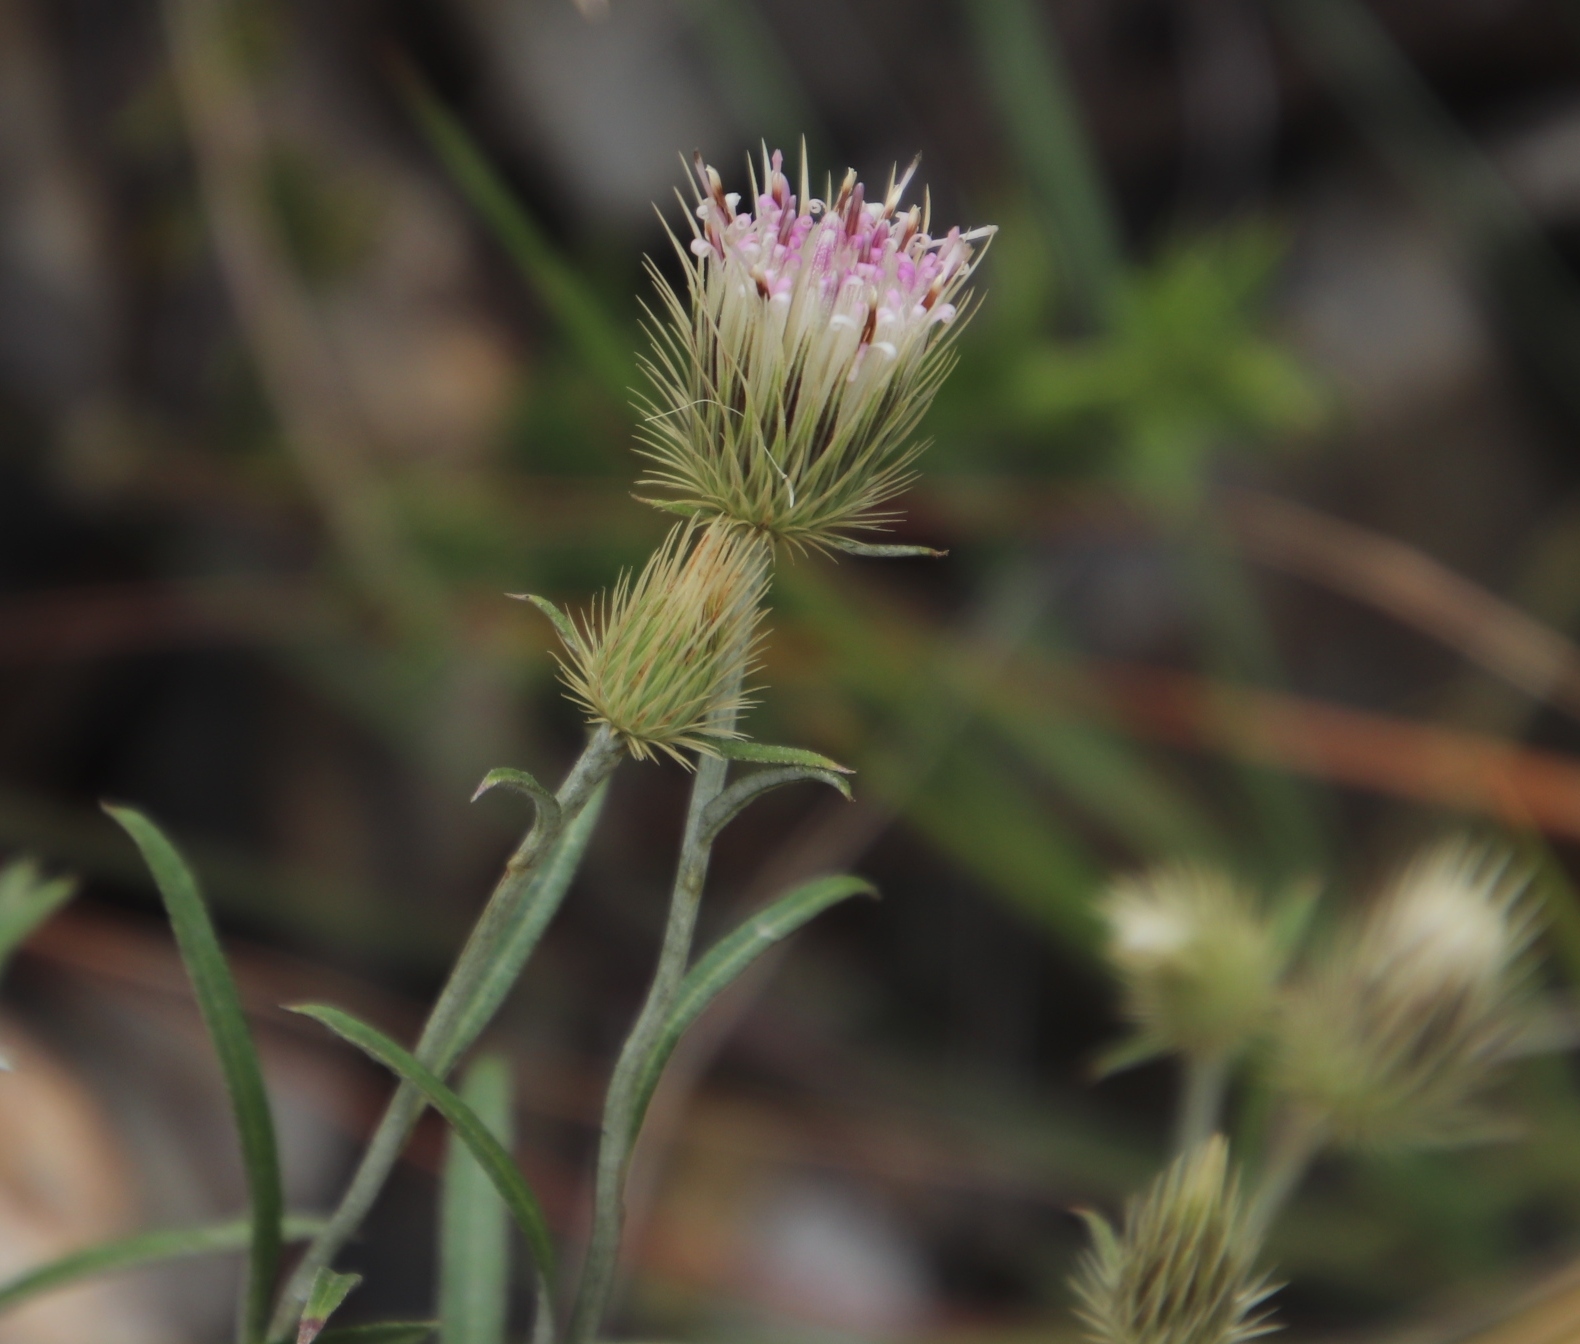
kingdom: Plantae
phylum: Tracheophyta
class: Magnoliopsida
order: Asterales
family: Asteraceae
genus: Dicoma
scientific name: Dicoma anomala
